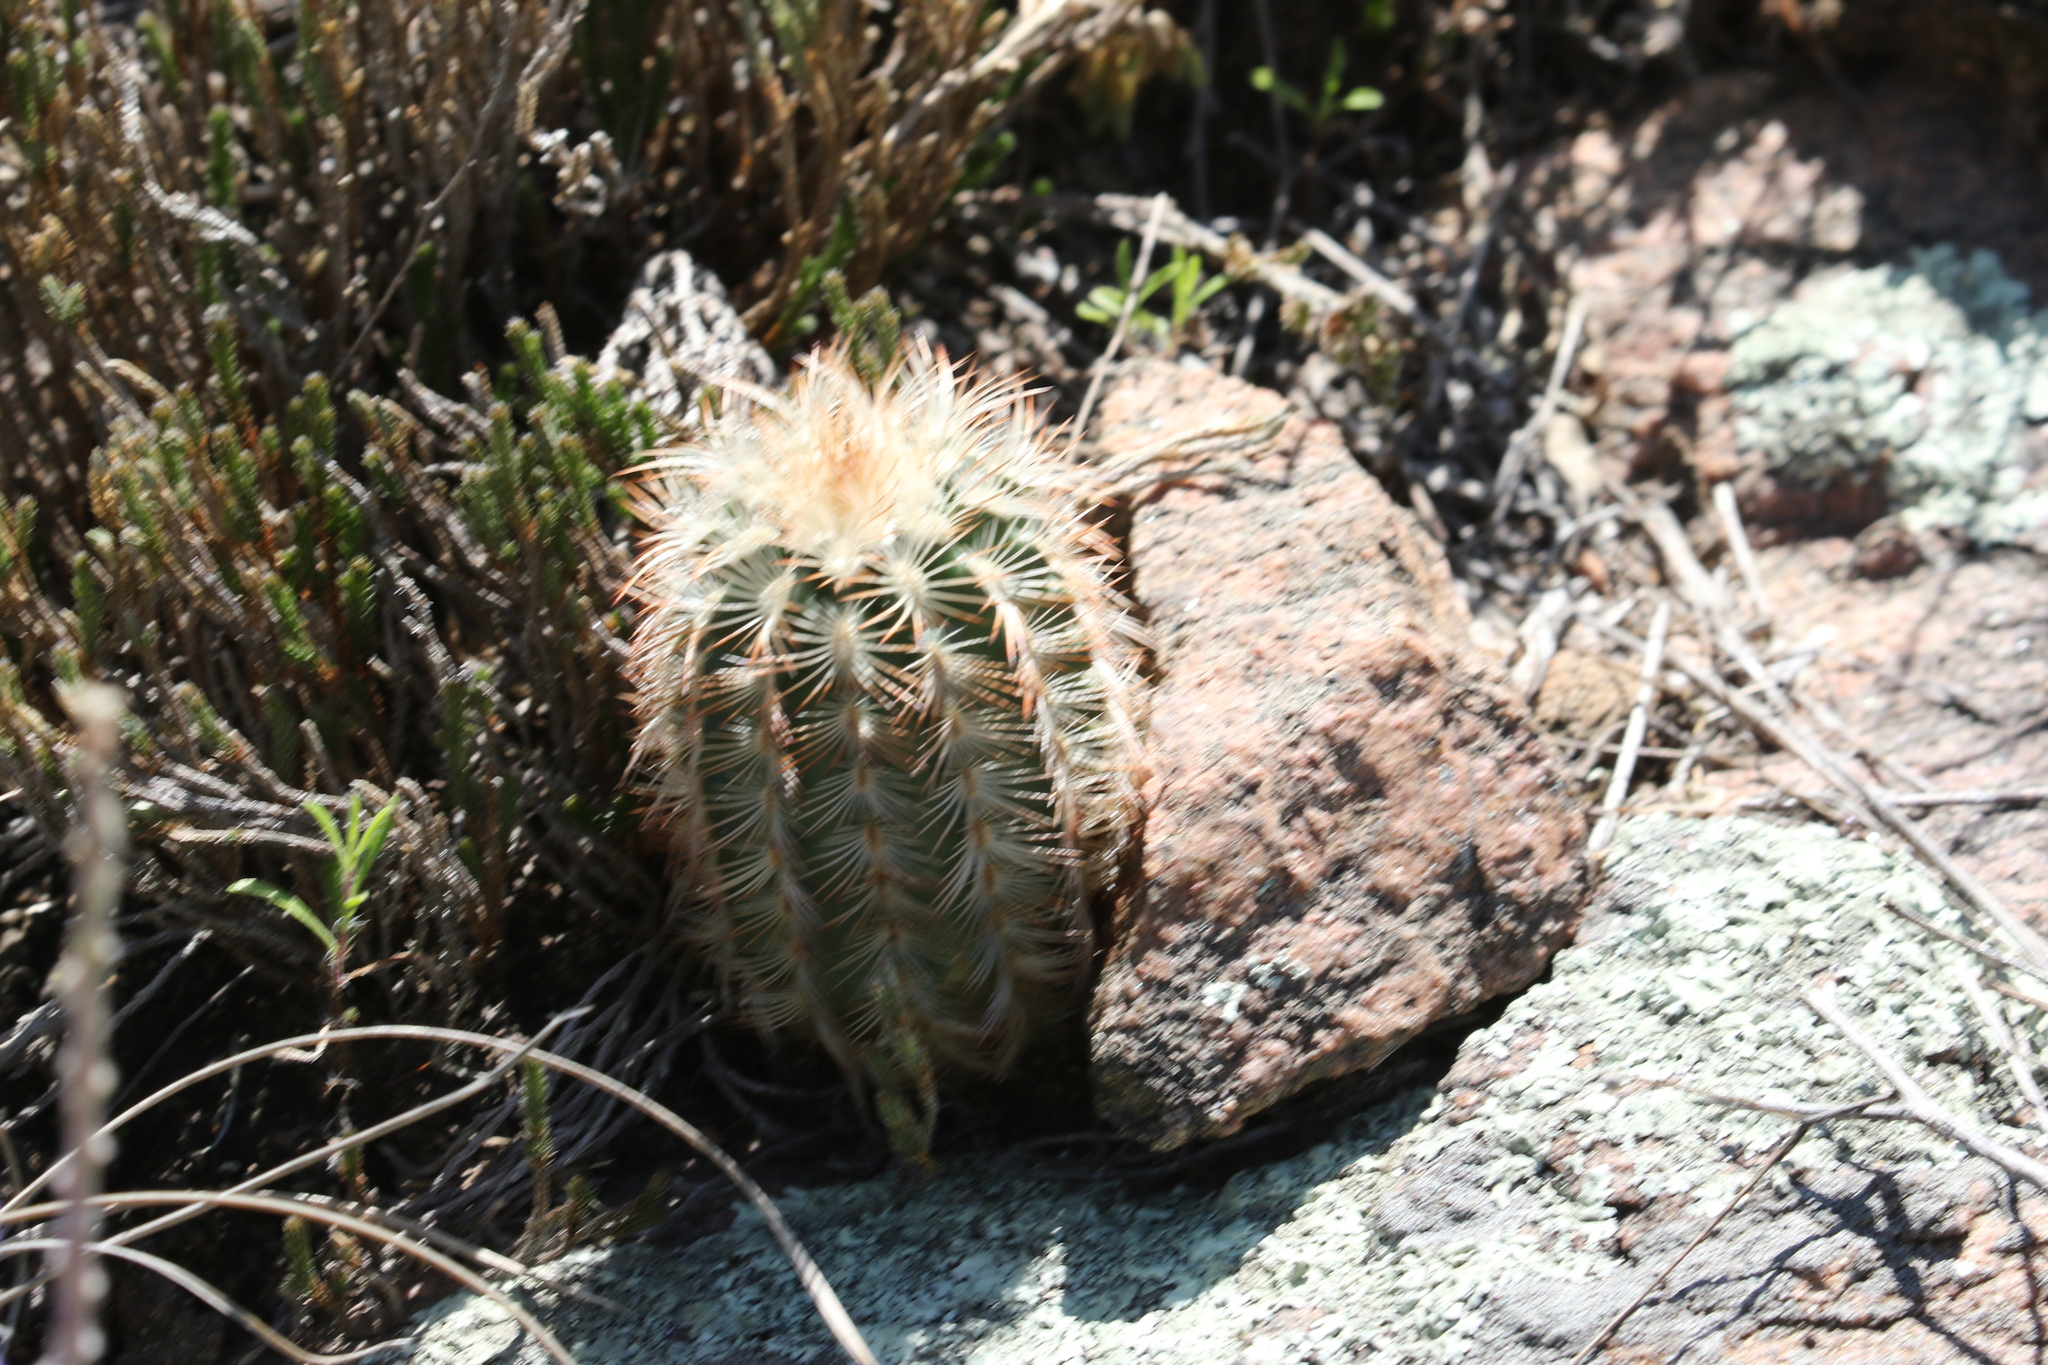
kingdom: Plantae
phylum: Tracheophyta
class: Magnoliopsida
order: Caryophyllales
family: Cactaceae
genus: Echinocereus
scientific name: Echinocereus reichenbachii
